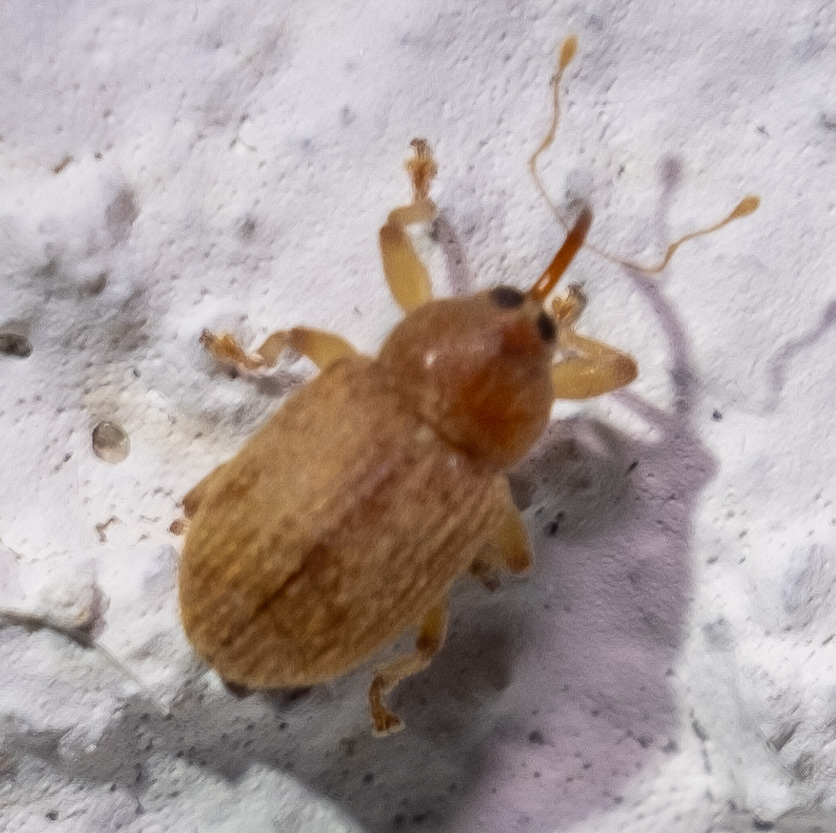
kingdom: Animalia
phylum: Arthropoda
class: Insecta
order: Coleoptera
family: Curculionidae
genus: Lignyodes
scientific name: Lignyodes helvolus
